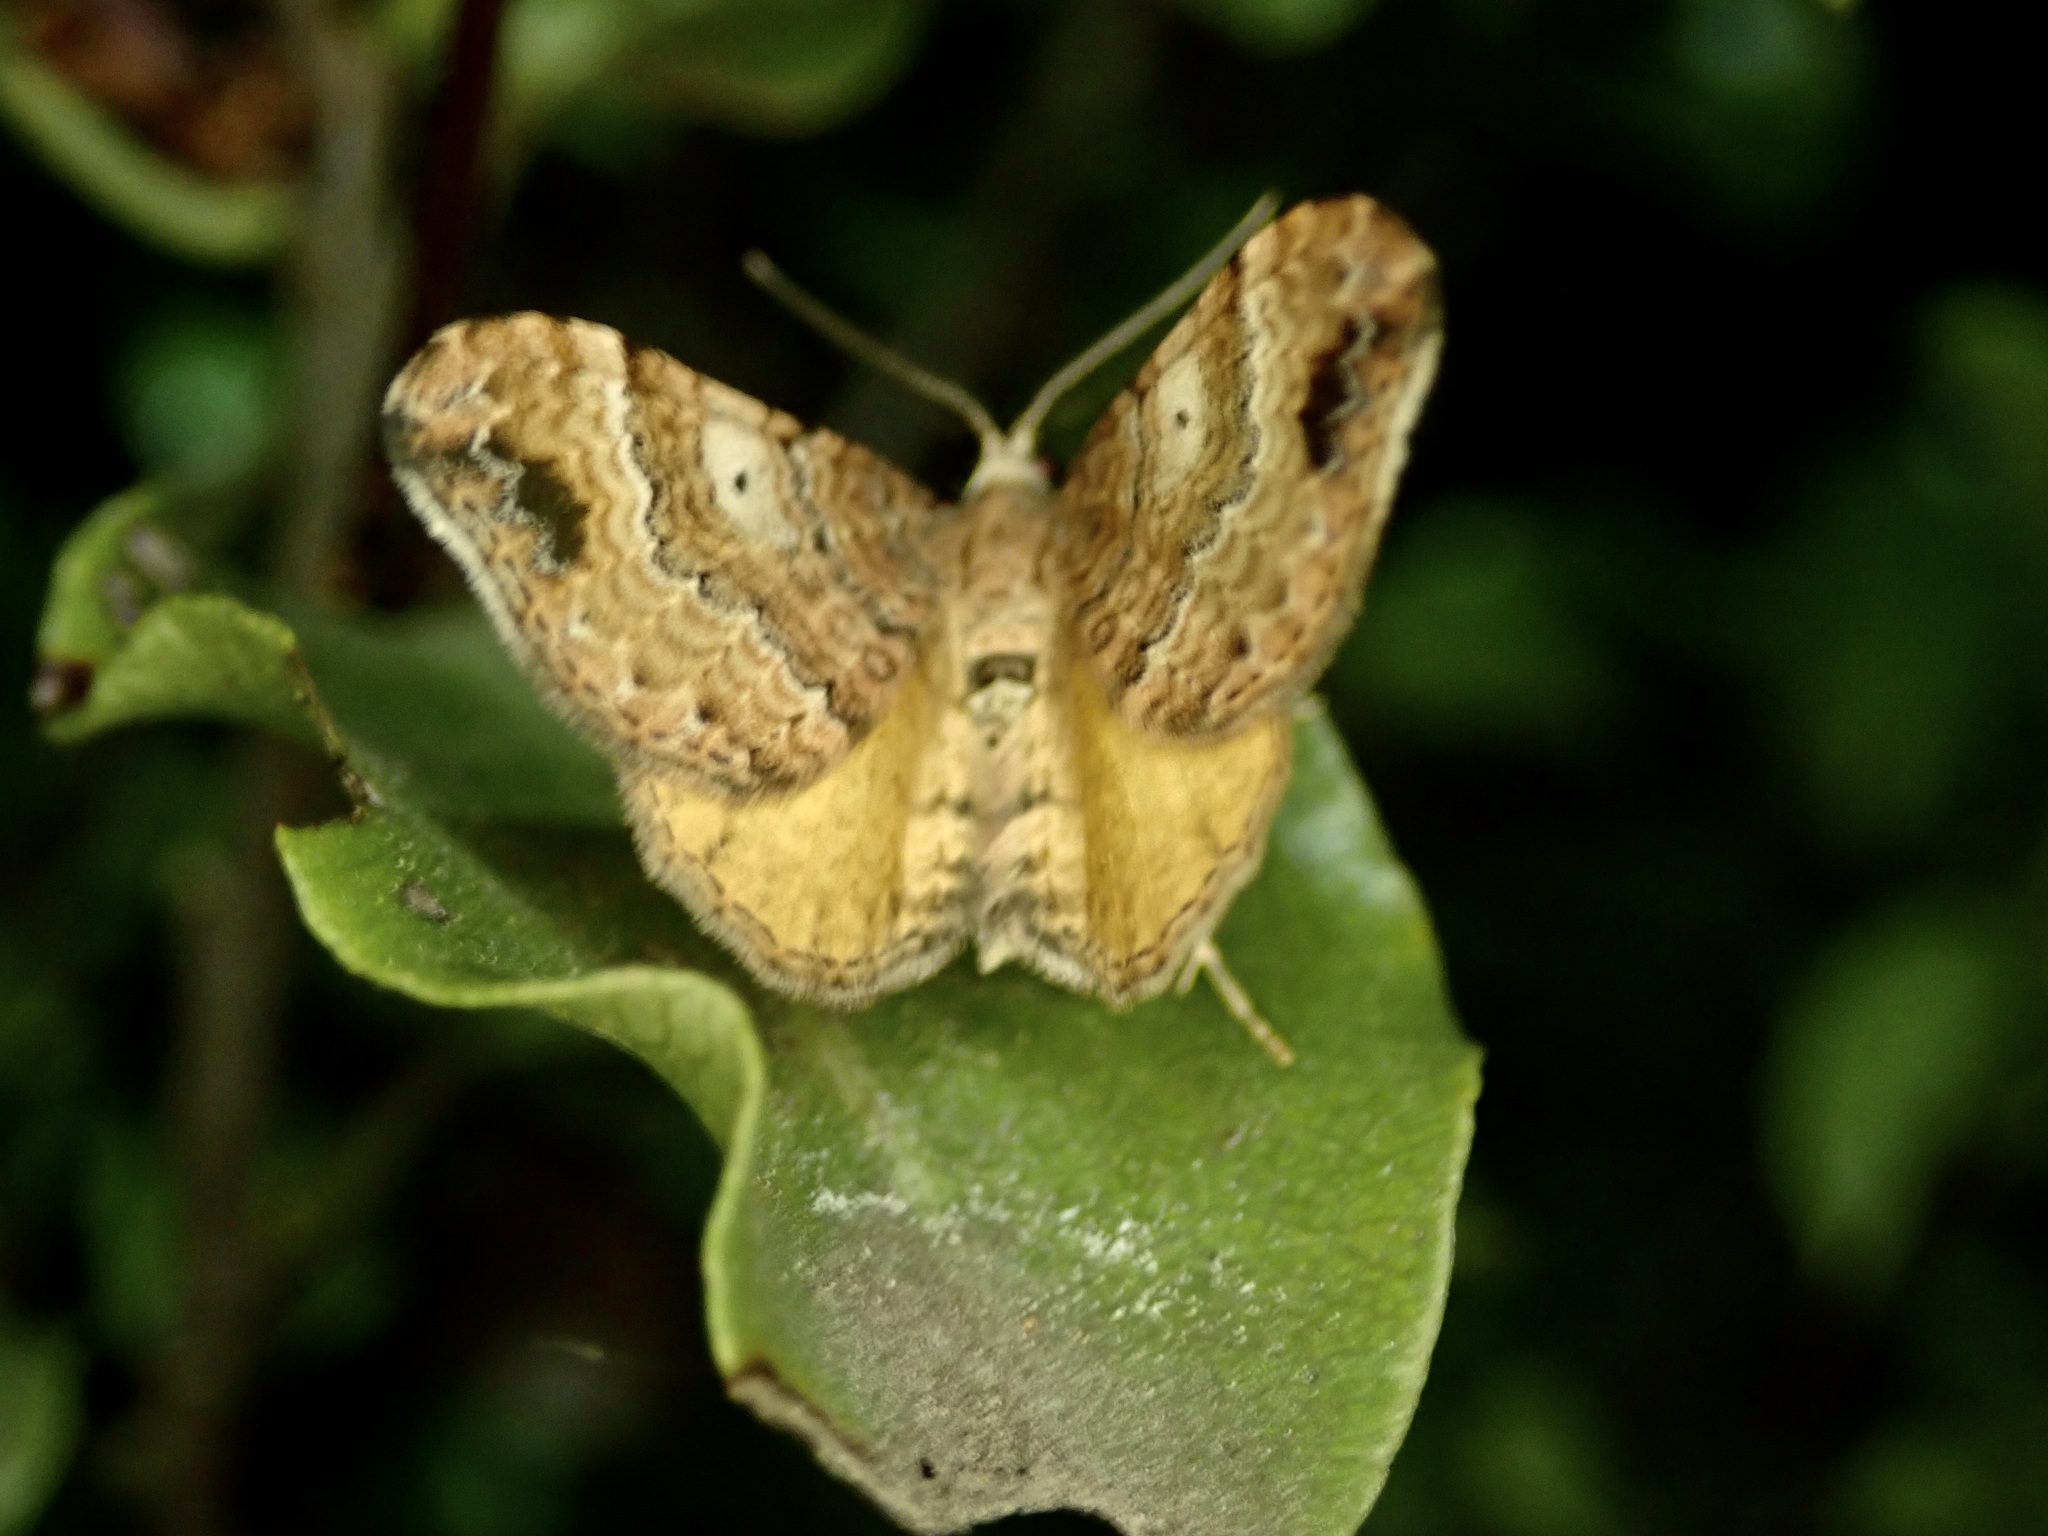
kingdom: Animalia
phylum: Arthropoda
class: Insecta
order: Lepidoptera
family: Geometridae
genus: Homodotis
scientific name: Homodotis megaspilata
